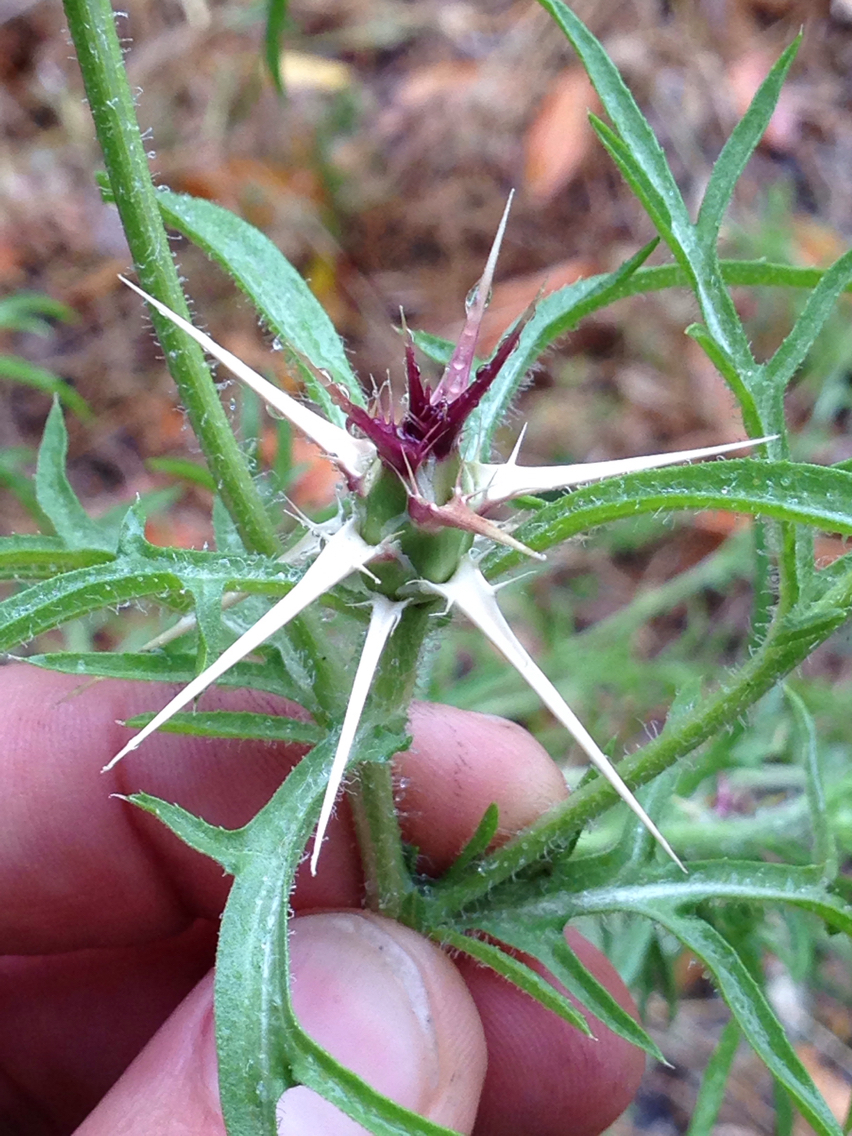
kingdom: Plantae
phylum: Tracheophyta
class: Magnoliopsida
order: Asterales
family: Asteraceae
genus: Centaurea
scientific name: Centaurea calcitrapa
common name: Red star-thistle
